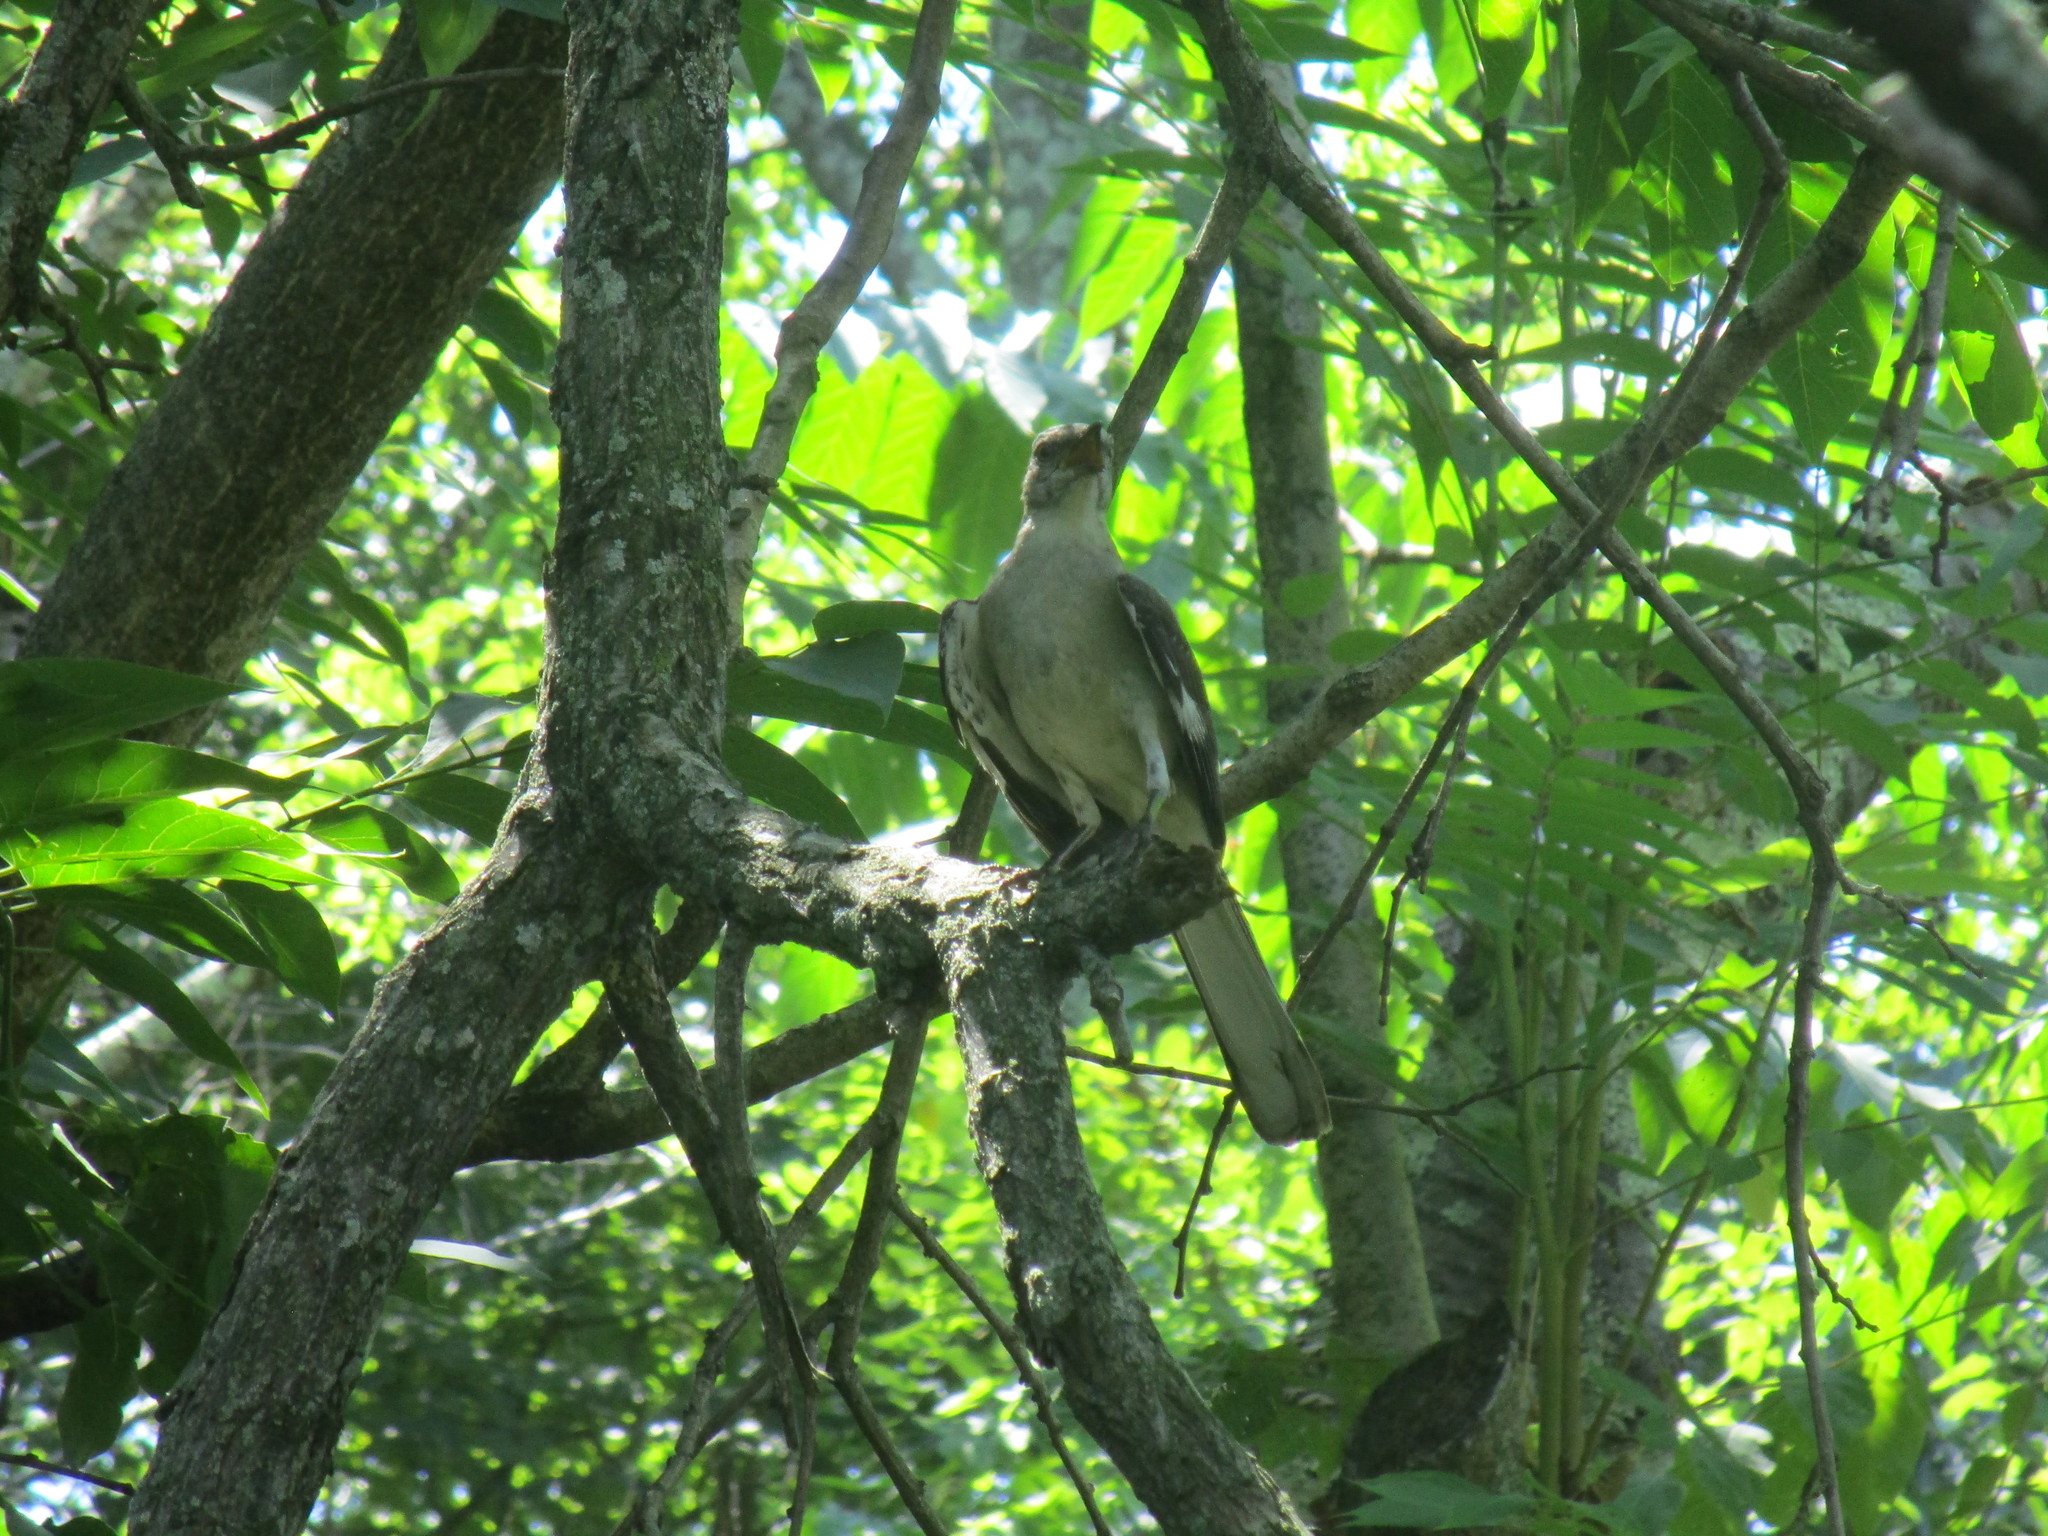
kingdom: Animalia
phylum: Chordata
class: Aves
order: Passeriformes
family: Mimidae
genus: Mimus
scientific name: Mimus polyglottos
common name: Northern mockingbird
